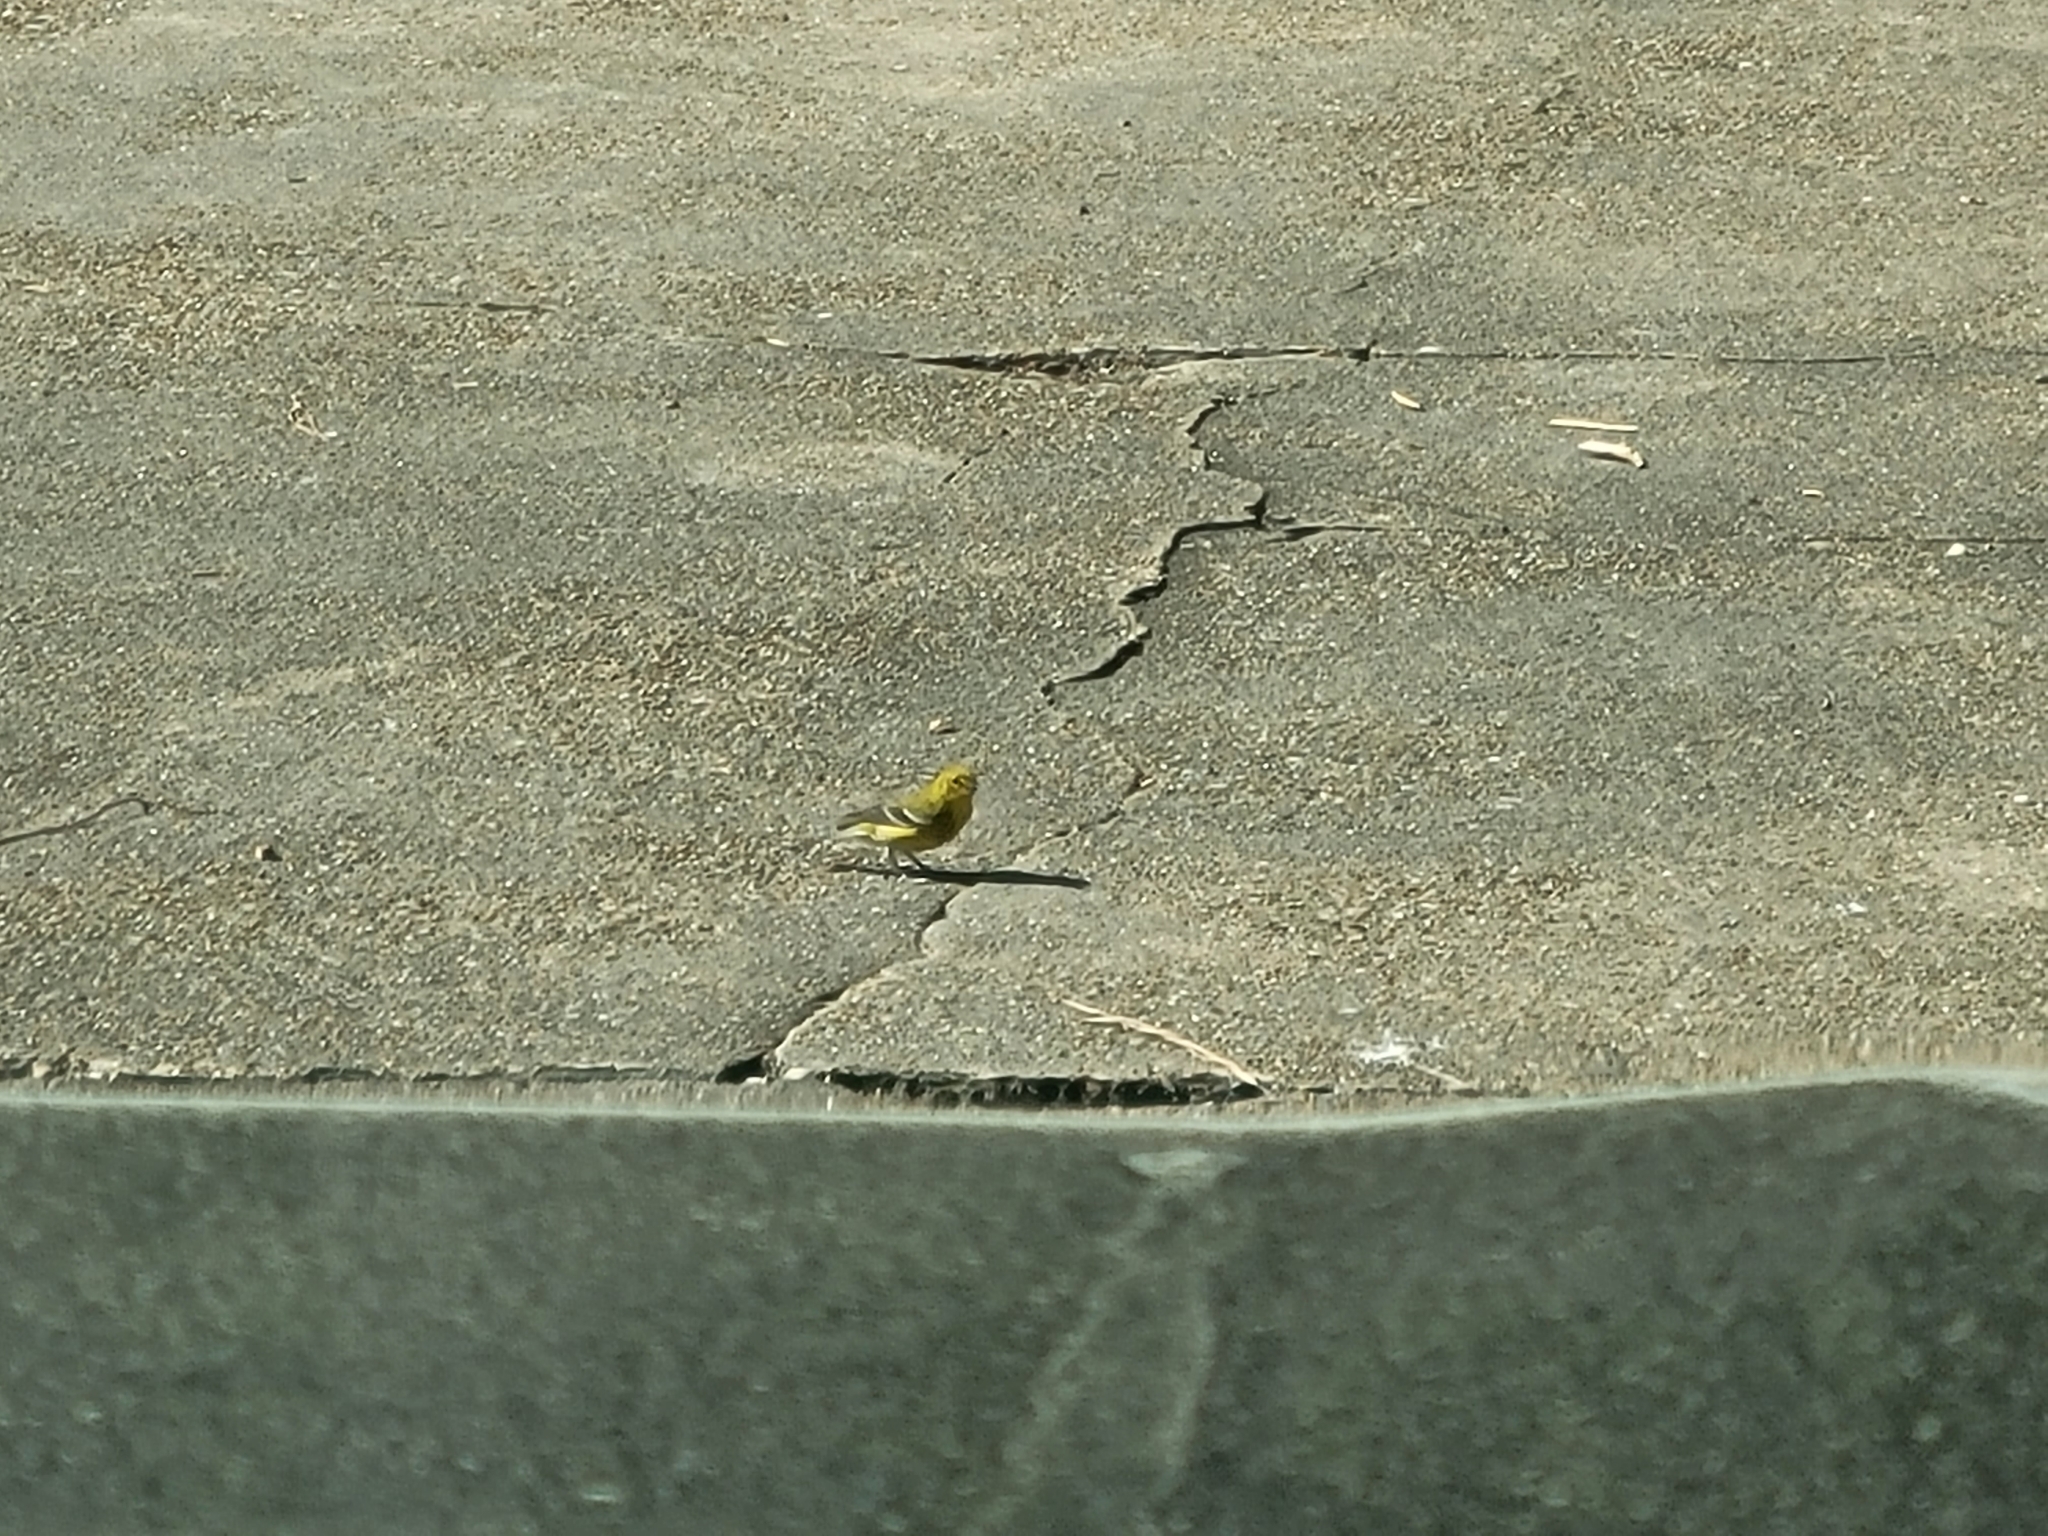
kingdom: Animalia
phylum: Chordata
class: Aves
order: Passeriformes
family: Parulidae
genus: Setophaga
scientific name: Setophaga pinus
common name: Pine warbler
